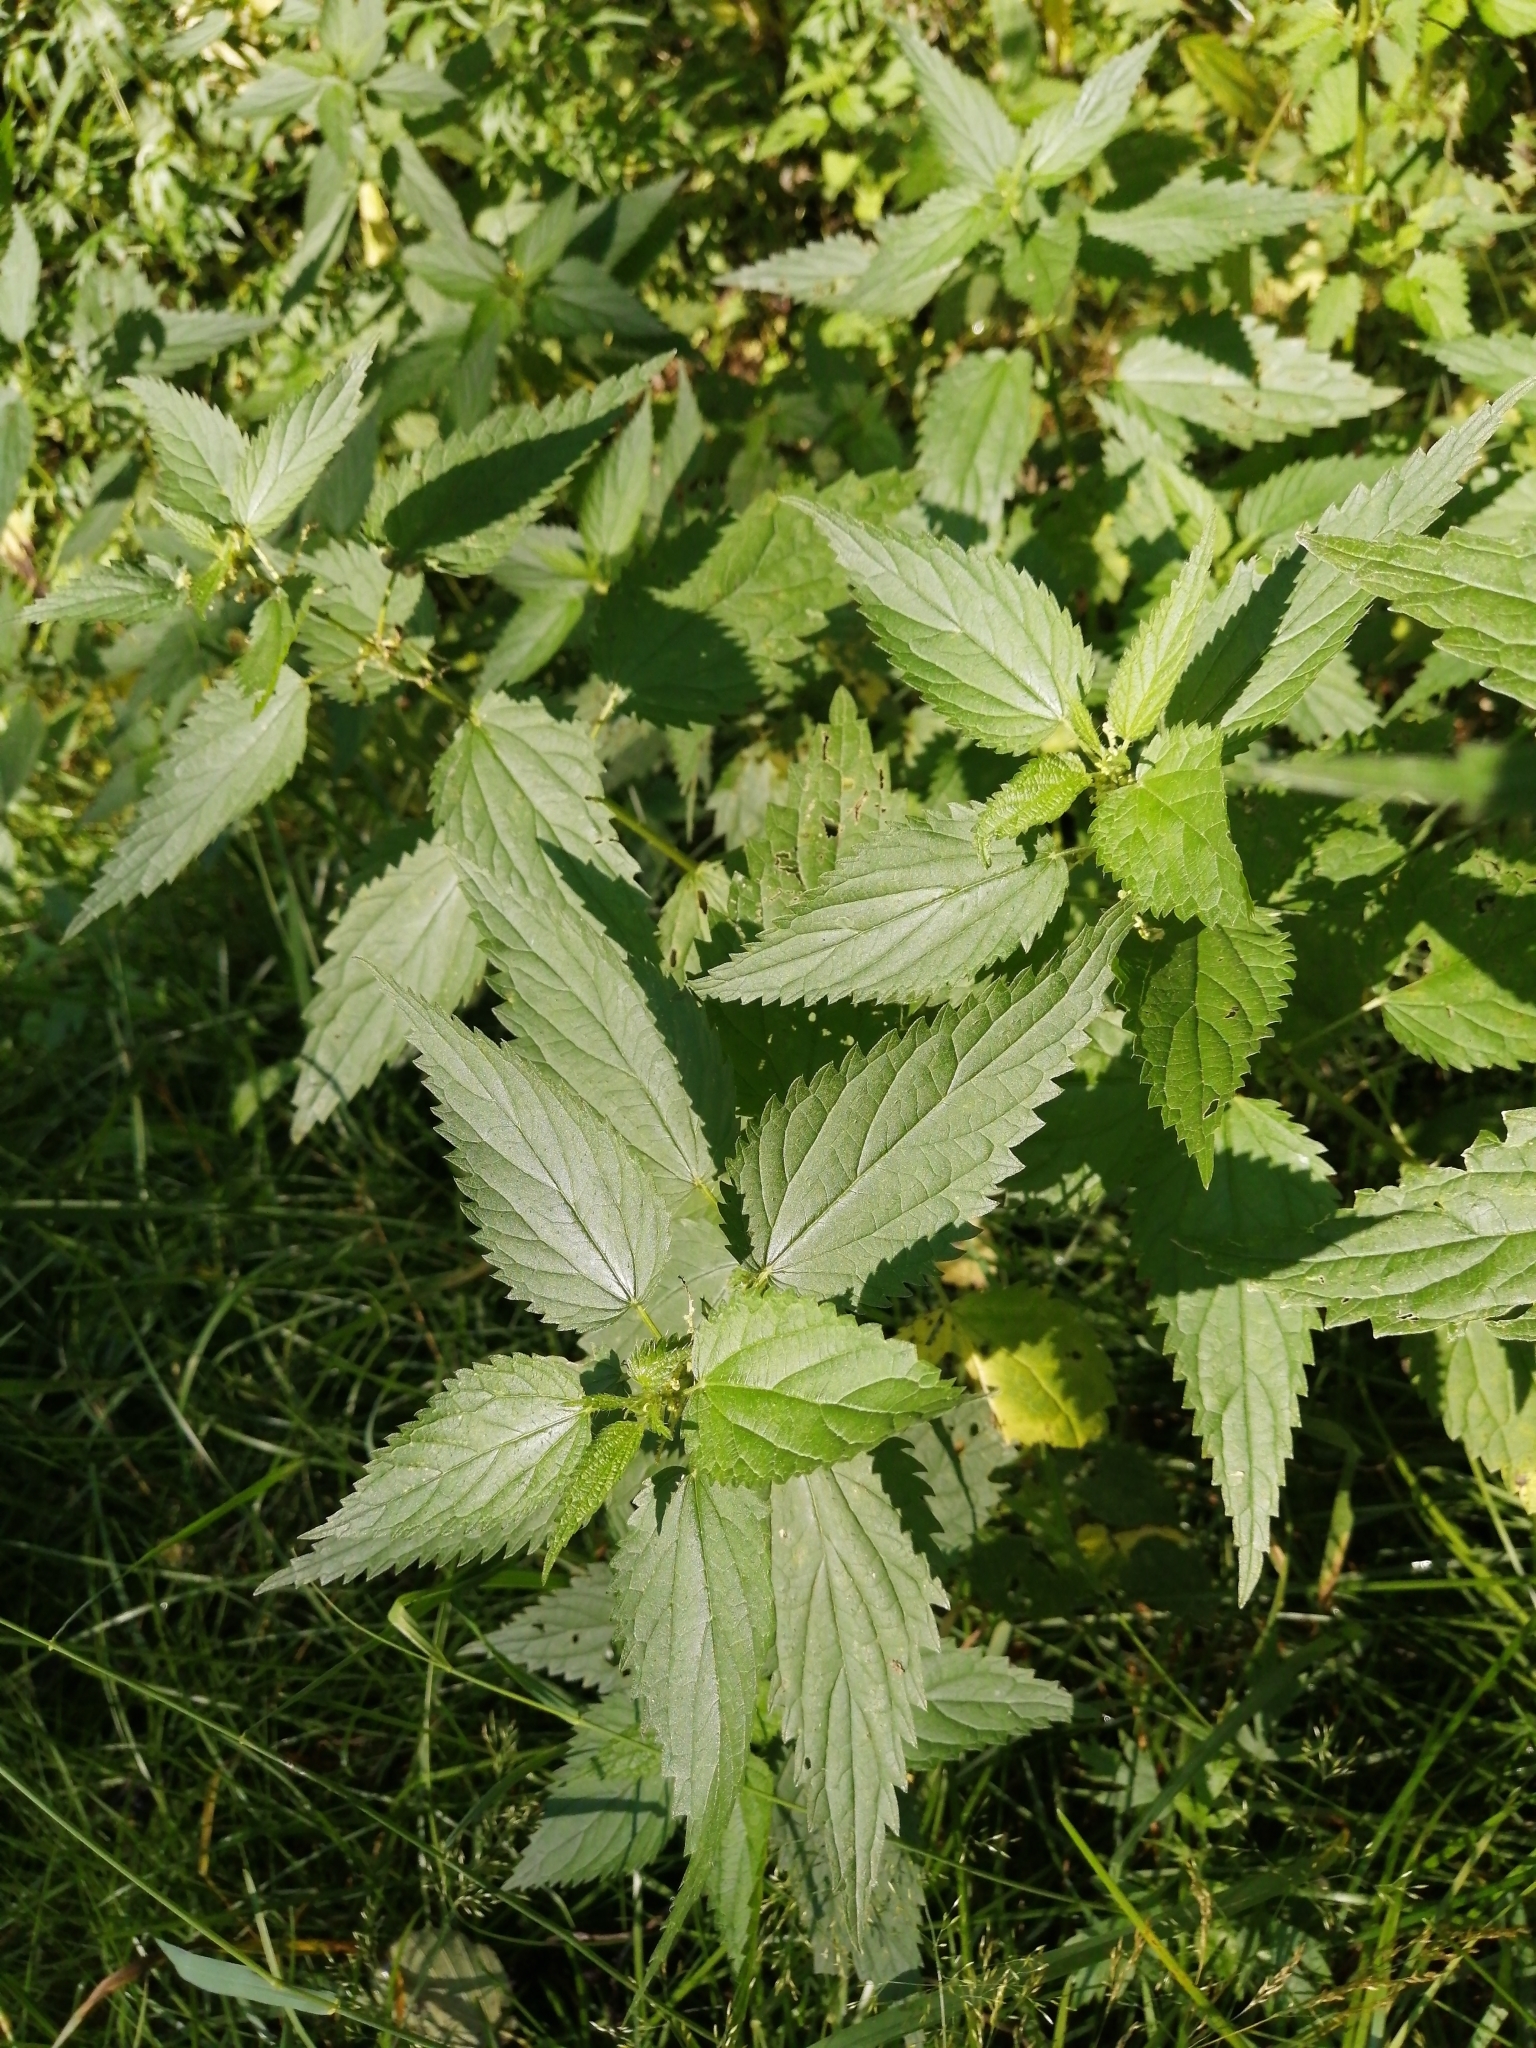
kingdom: Plantae
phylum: Tracheophyta
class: Magnoliopsida
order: Rosales
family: Urticaceae
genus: Urtica
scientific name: Urtica dioica
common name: Common nettle
